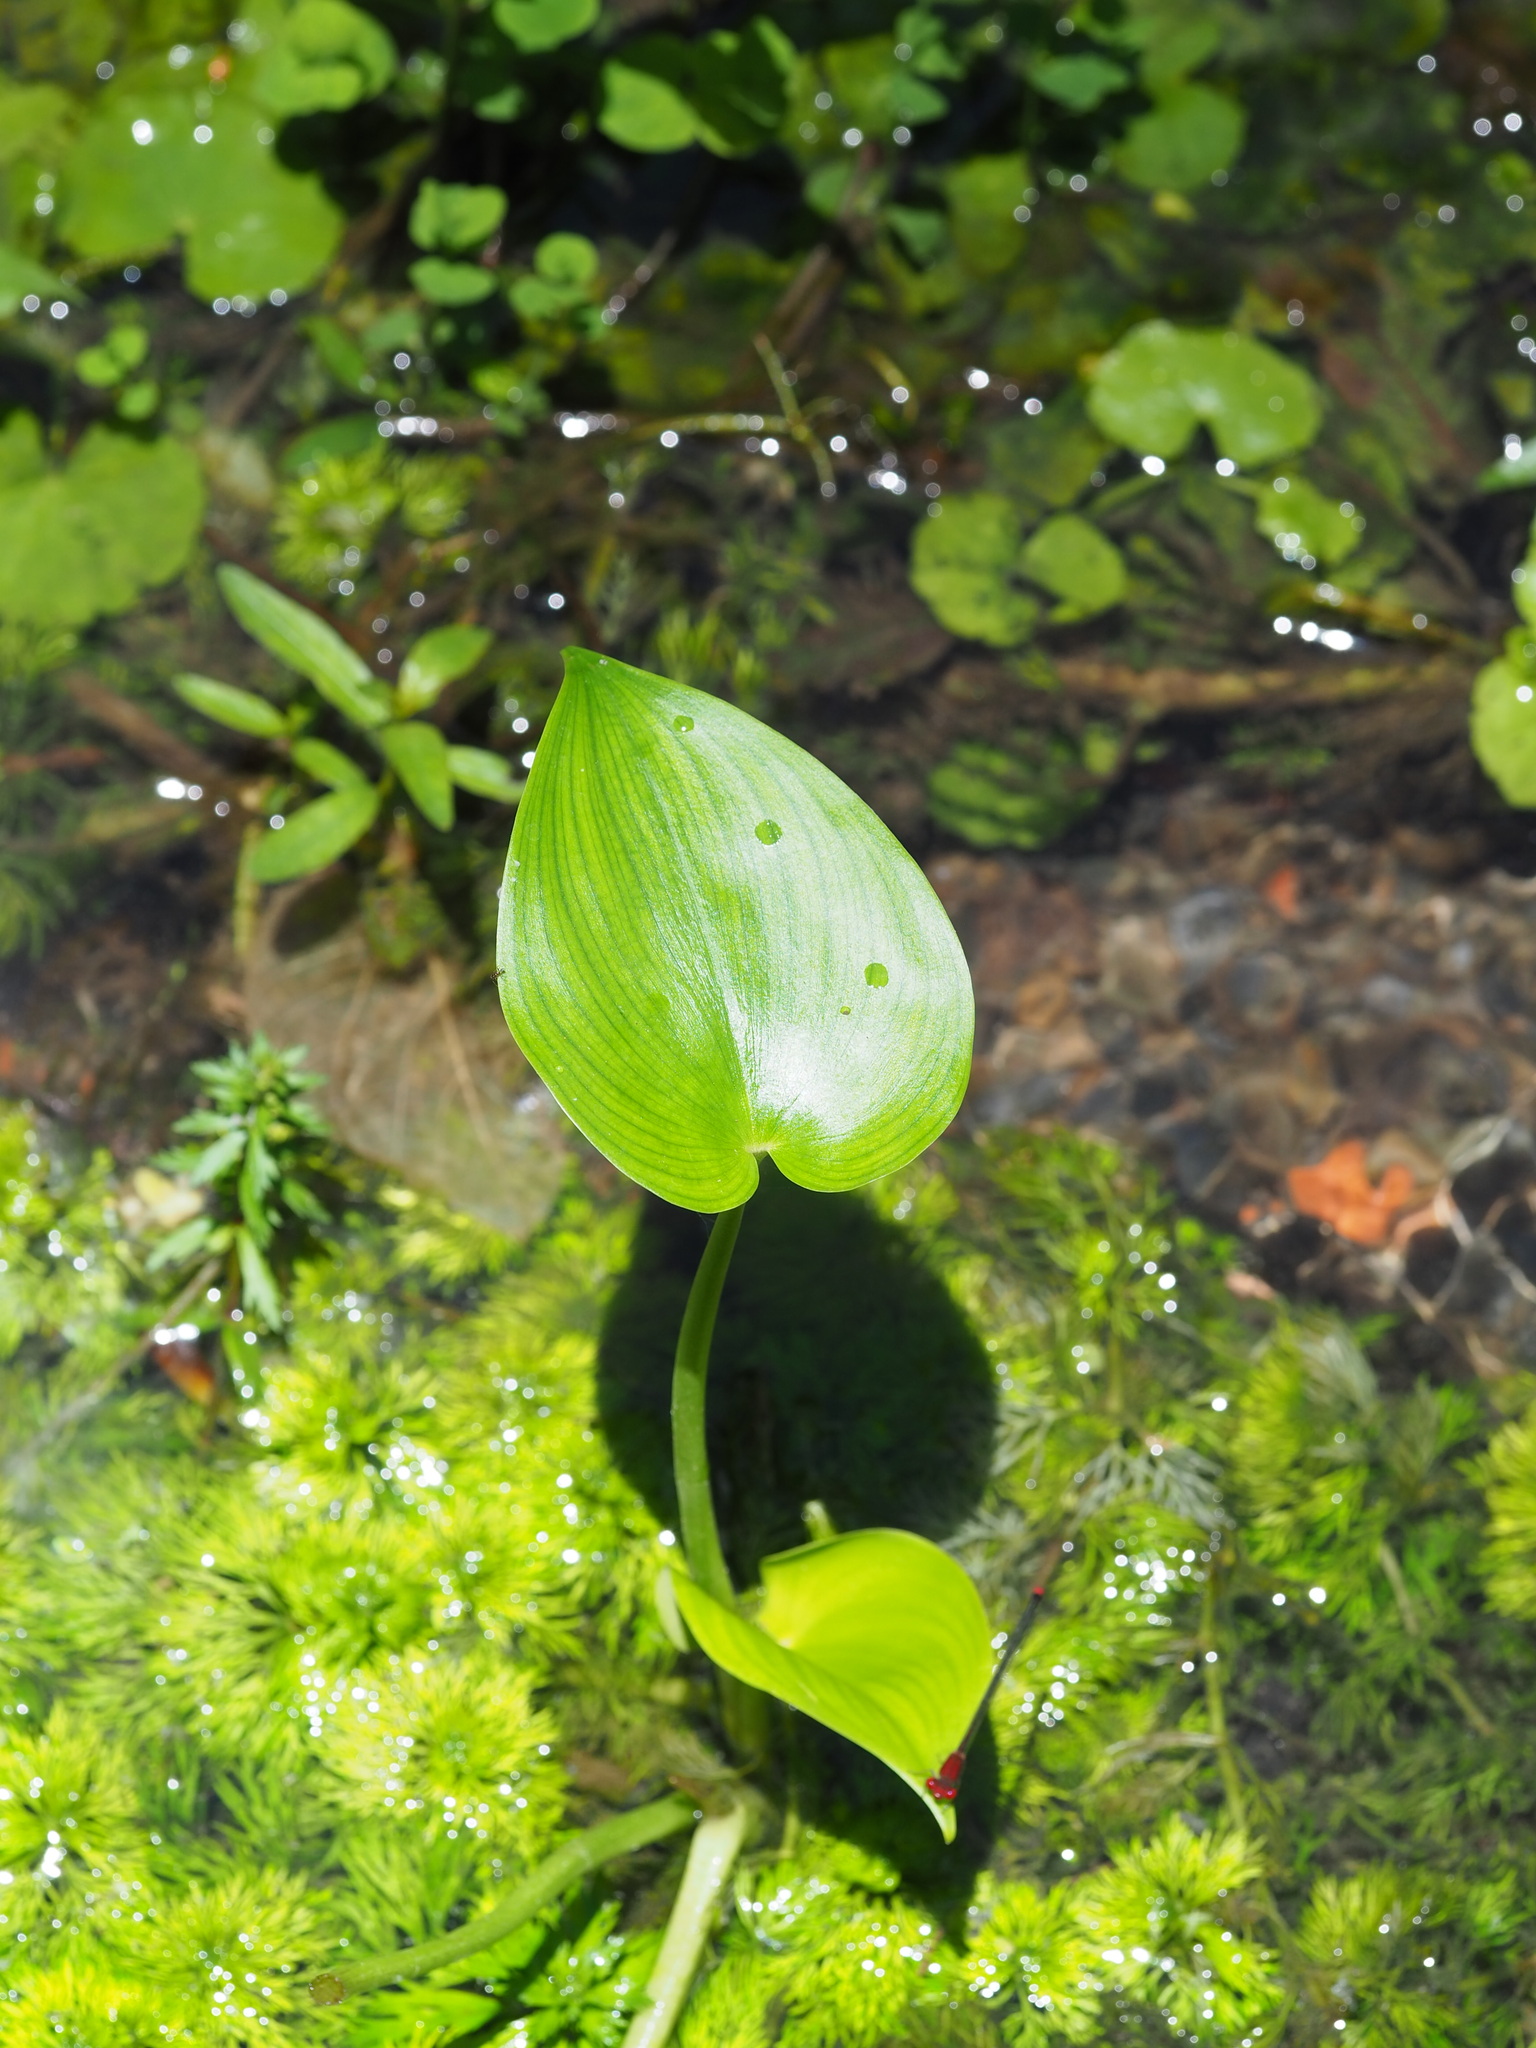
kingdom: Plantae
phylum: Tracheophyta
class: Liliopsida
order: Commelinales
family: Pontederiaceae
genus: Pontederia
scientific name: Pontederia vaginalis
